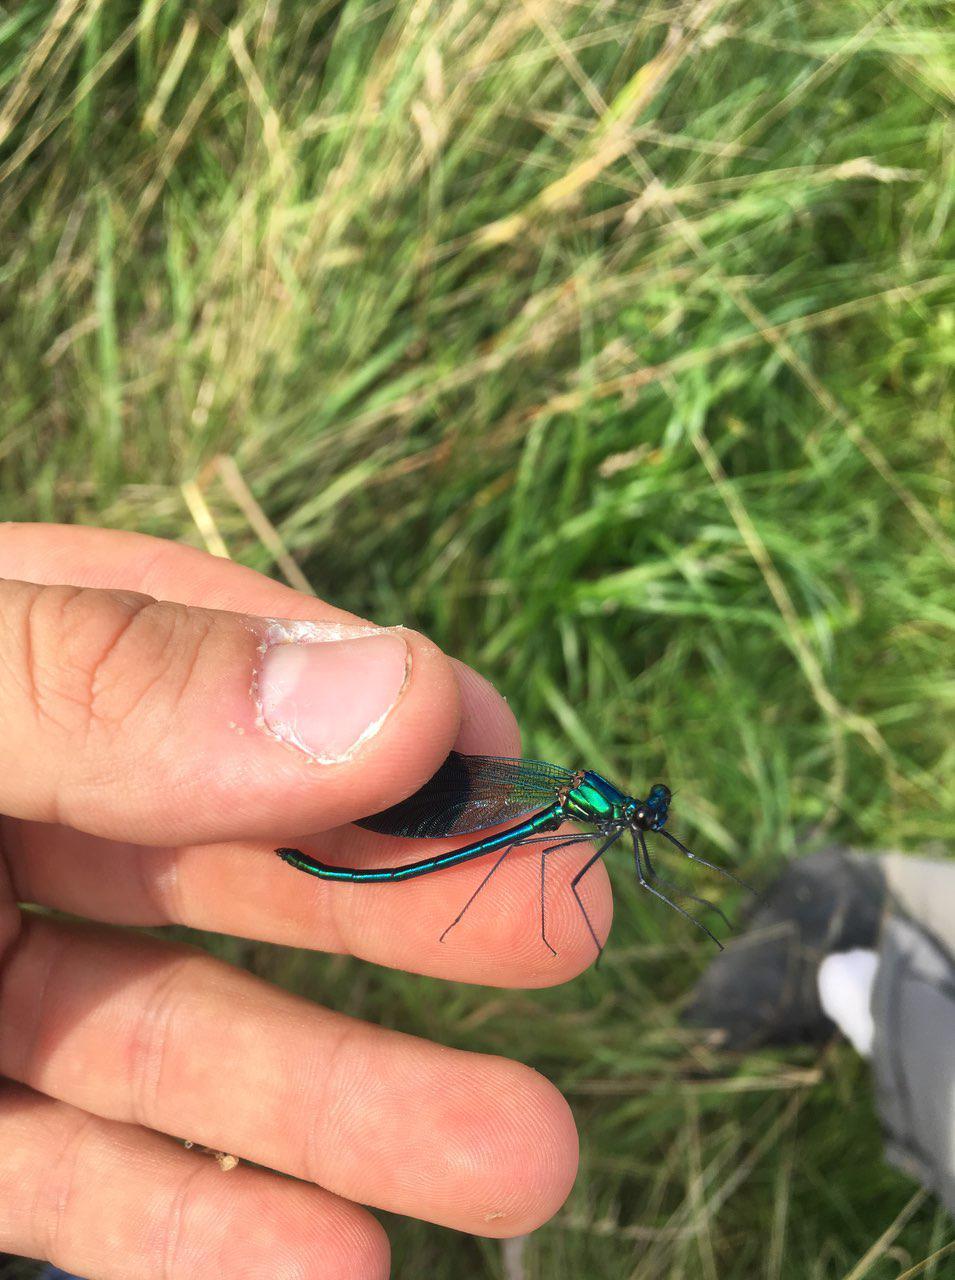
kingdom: Animalia
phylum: Arthropoda
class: Insecta
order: Odonata
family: Calopterygidae
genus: Calopteryx
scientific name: Calopteryx splendens
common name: Banded demoiselle
